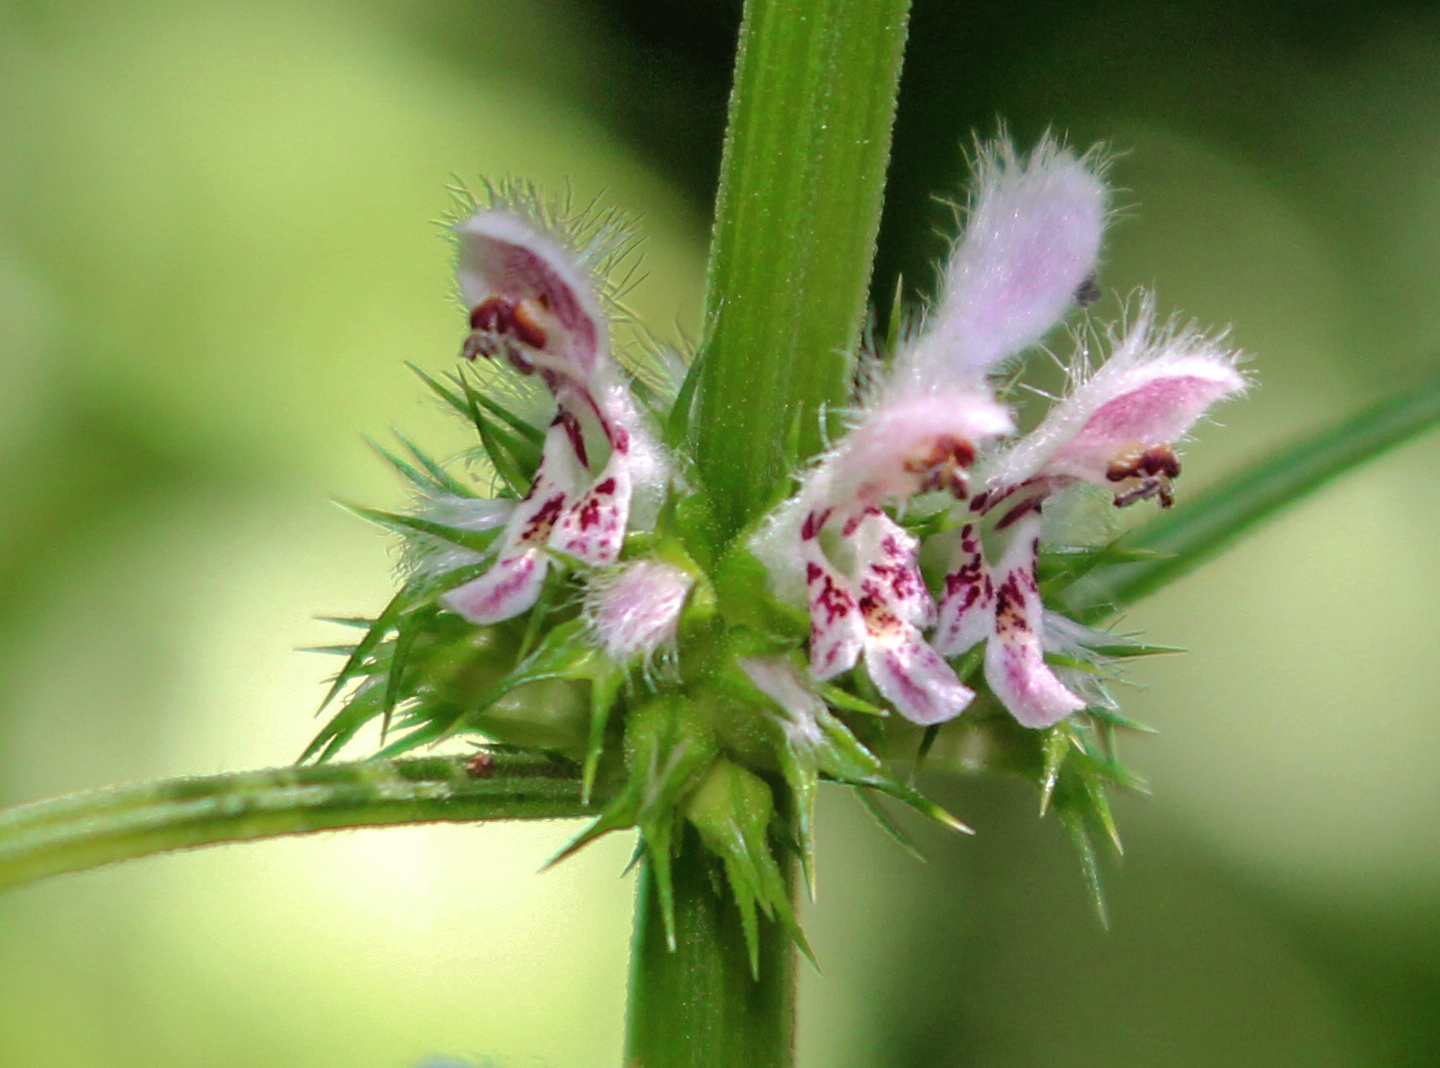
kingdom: Plantae
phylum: Tracheophyta
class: Magnoliopsida
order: Lamiales
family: Lamiaceae
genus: Leonurus
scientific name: Leonurus cardiaca
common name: Motherwort
